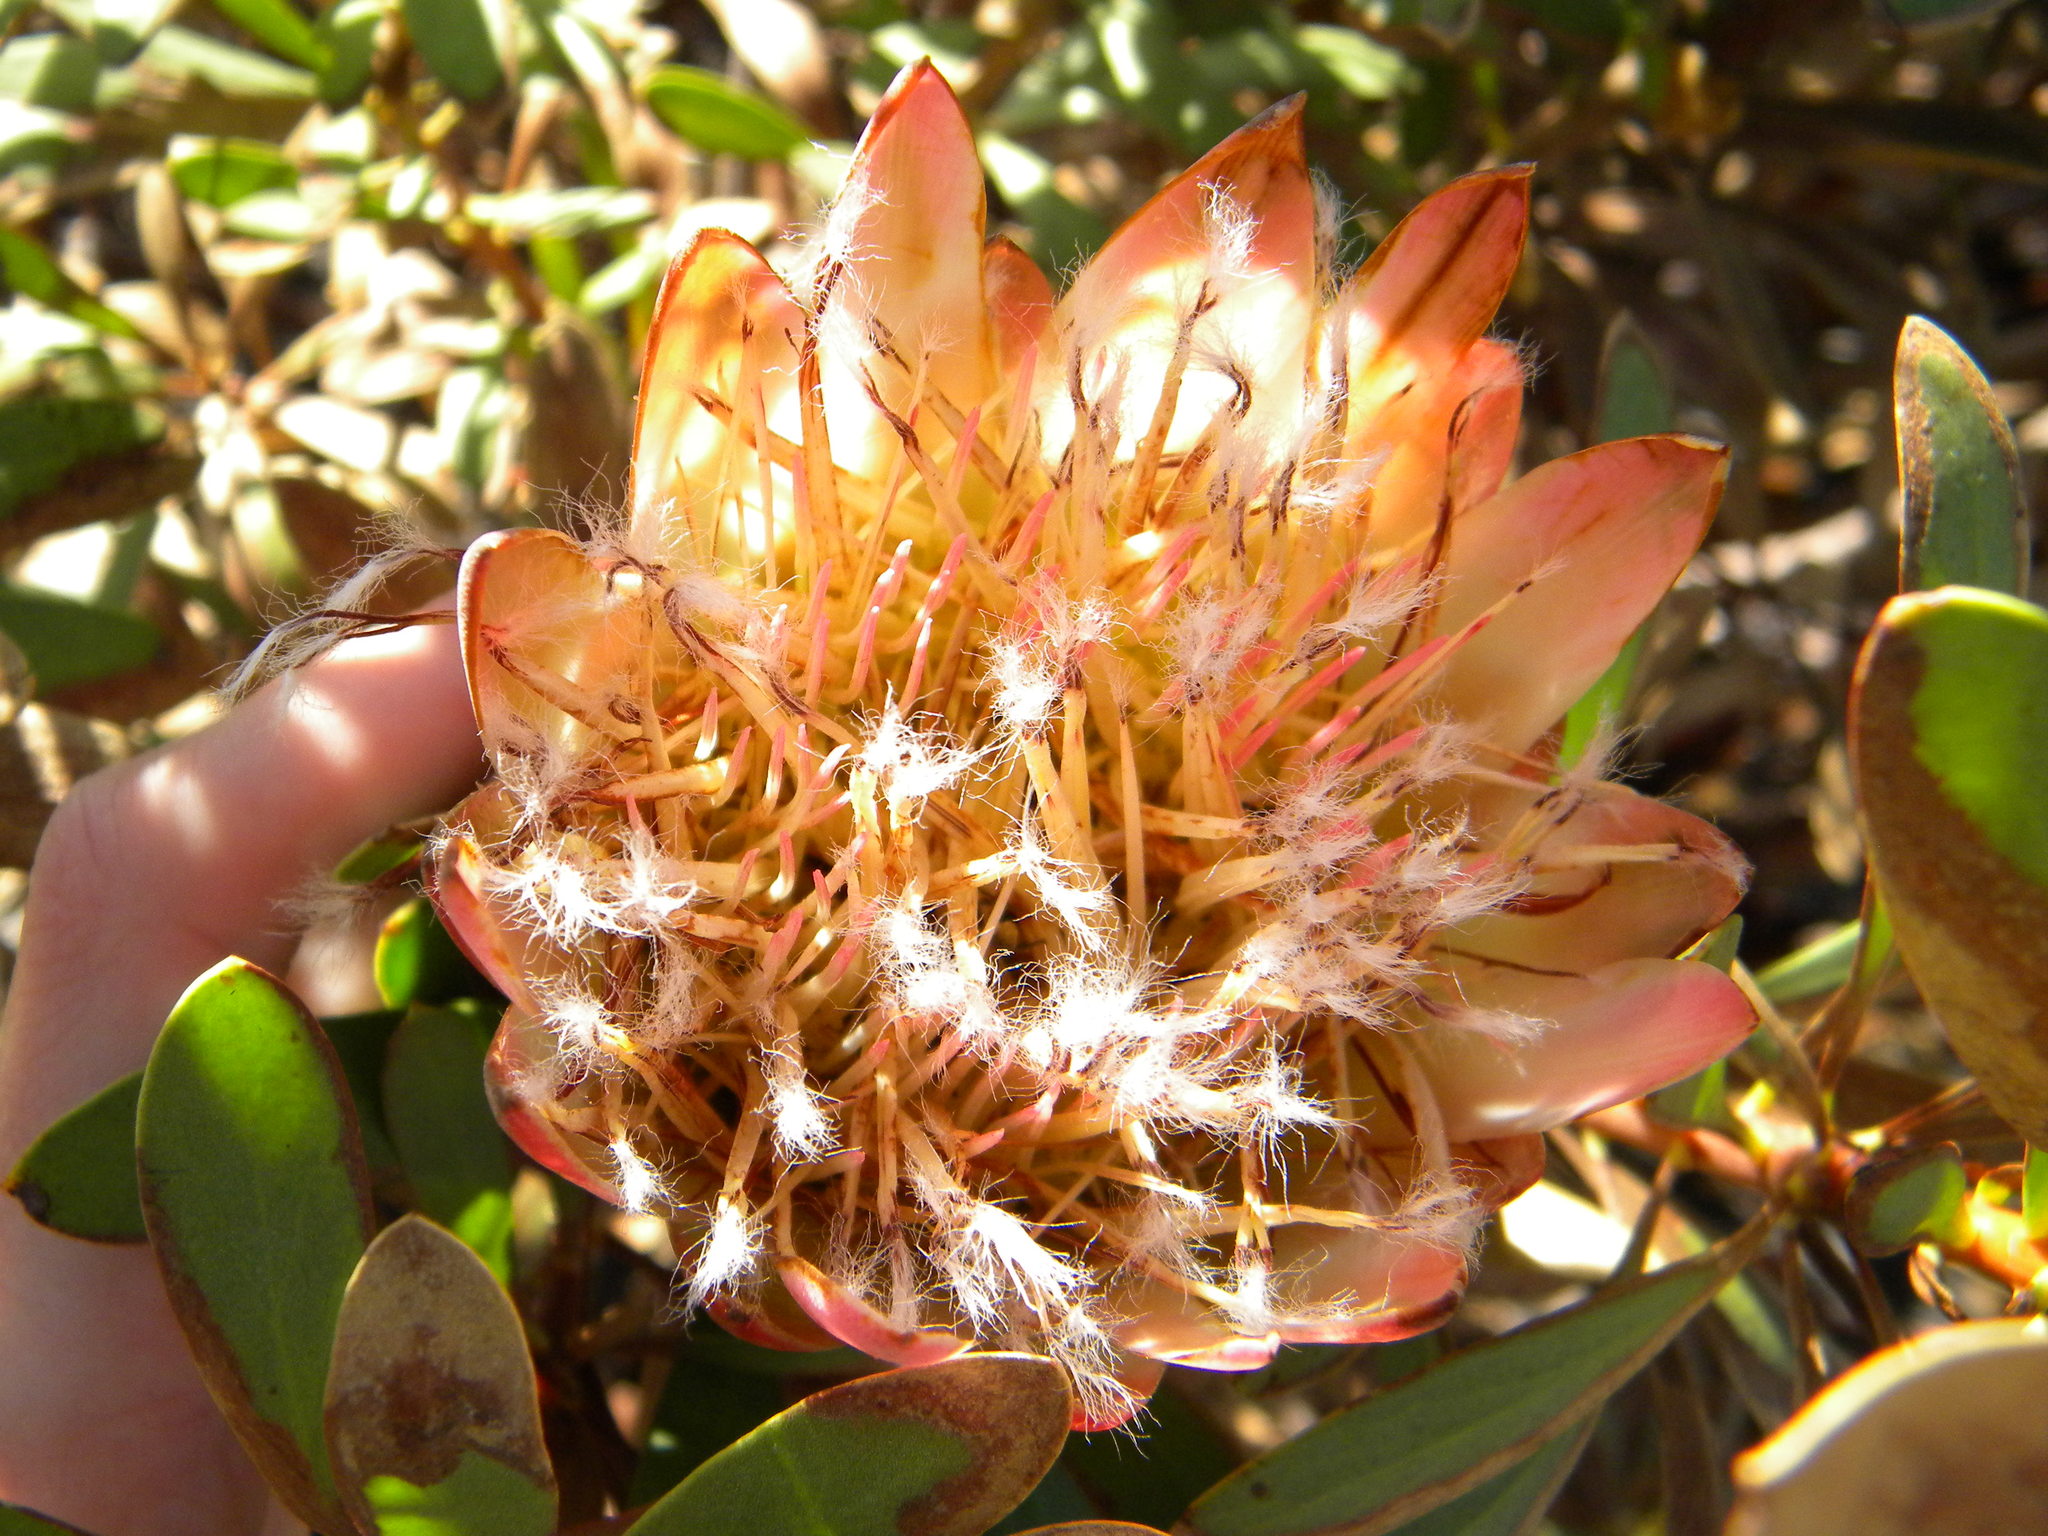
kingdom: Plantae
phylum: Tracheophyta
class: Magnoliopsida
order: Proteales
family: Proteaceae
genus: Protea
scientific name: Protea repens
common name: Sugarbush
